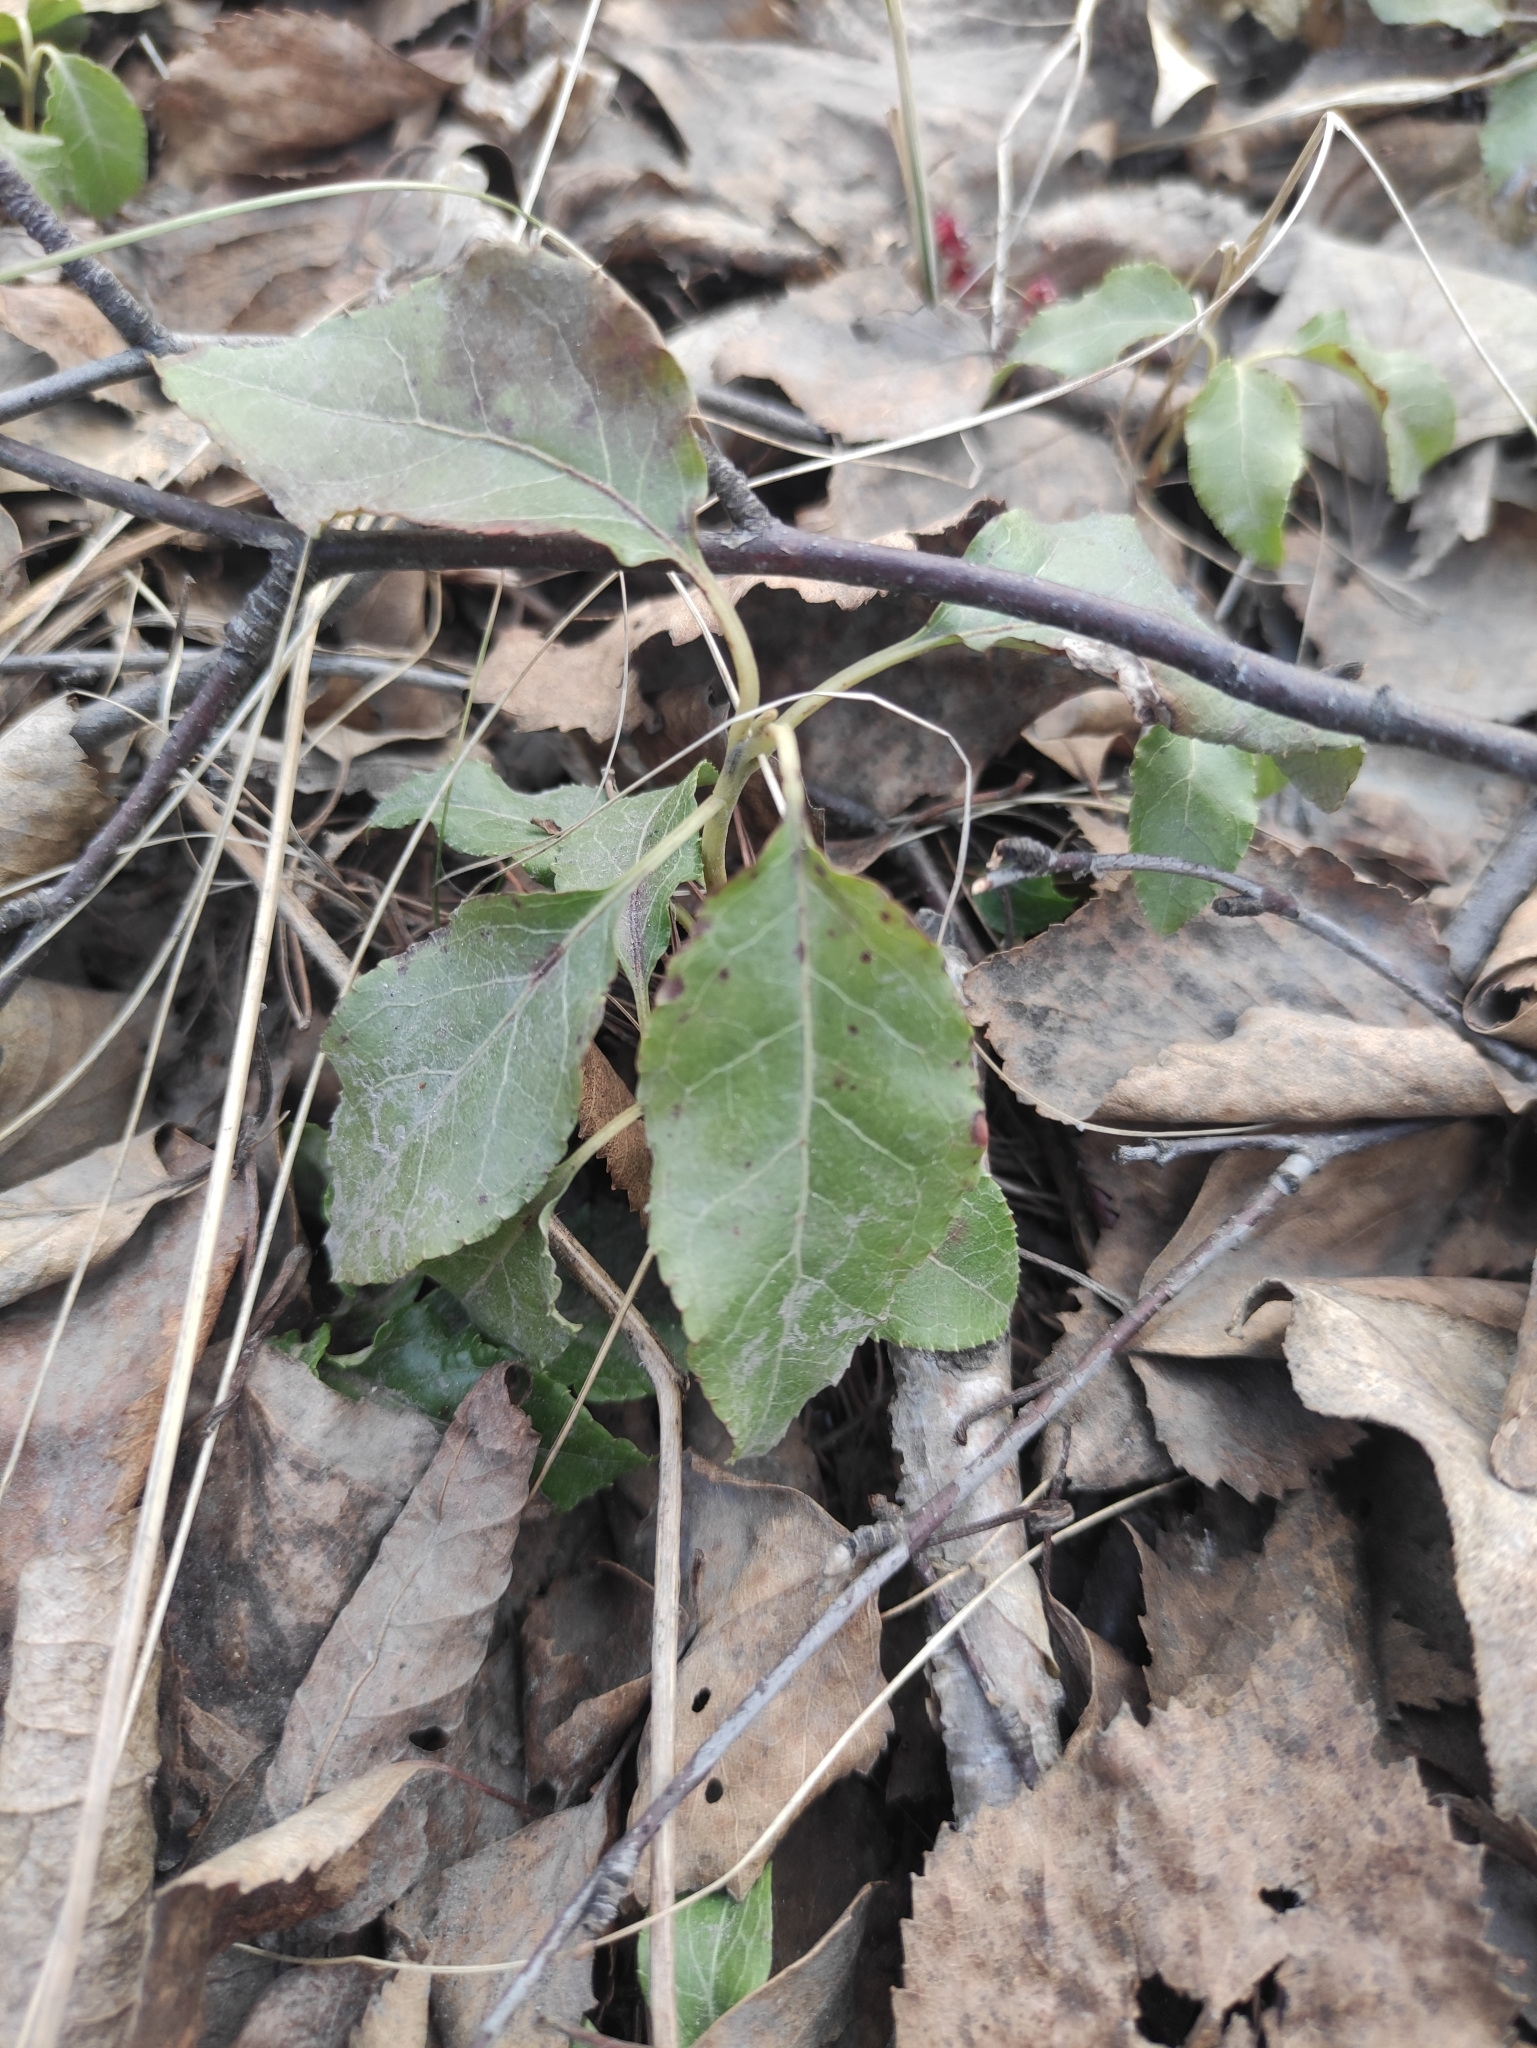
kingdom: Plantae
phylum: Tracheophyta
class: Magnoliopsida
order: Ericales
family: Ericaceae
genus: Orthilia
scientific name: Orthilia secunda
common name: One-sided orthilia
